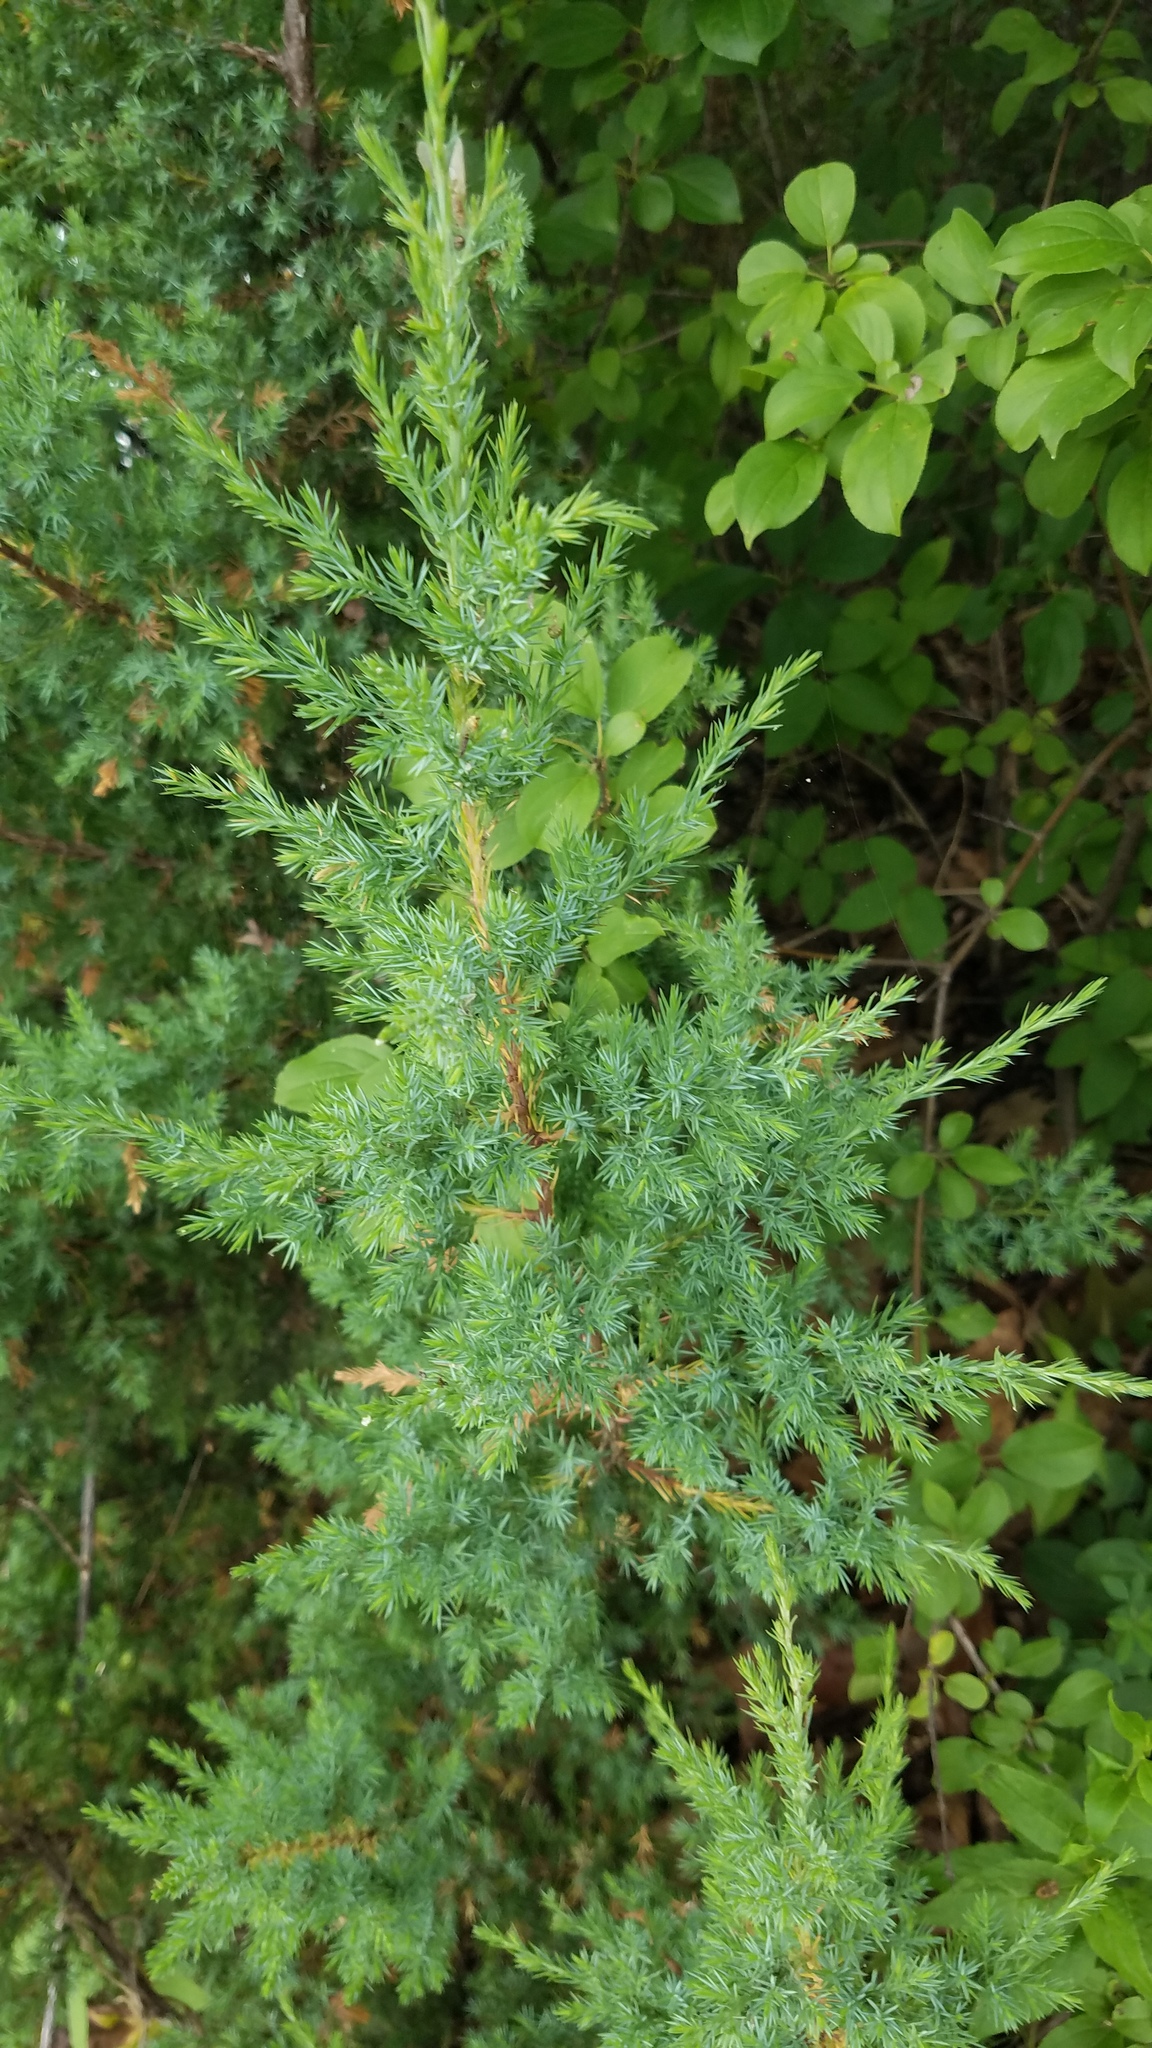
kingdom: Plantae
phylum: Tracheophyta
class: Pinopsida
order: Pinales
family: Cupressaceae
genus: Juniperus
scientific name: Juniperus virginiana
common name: Red juniper
